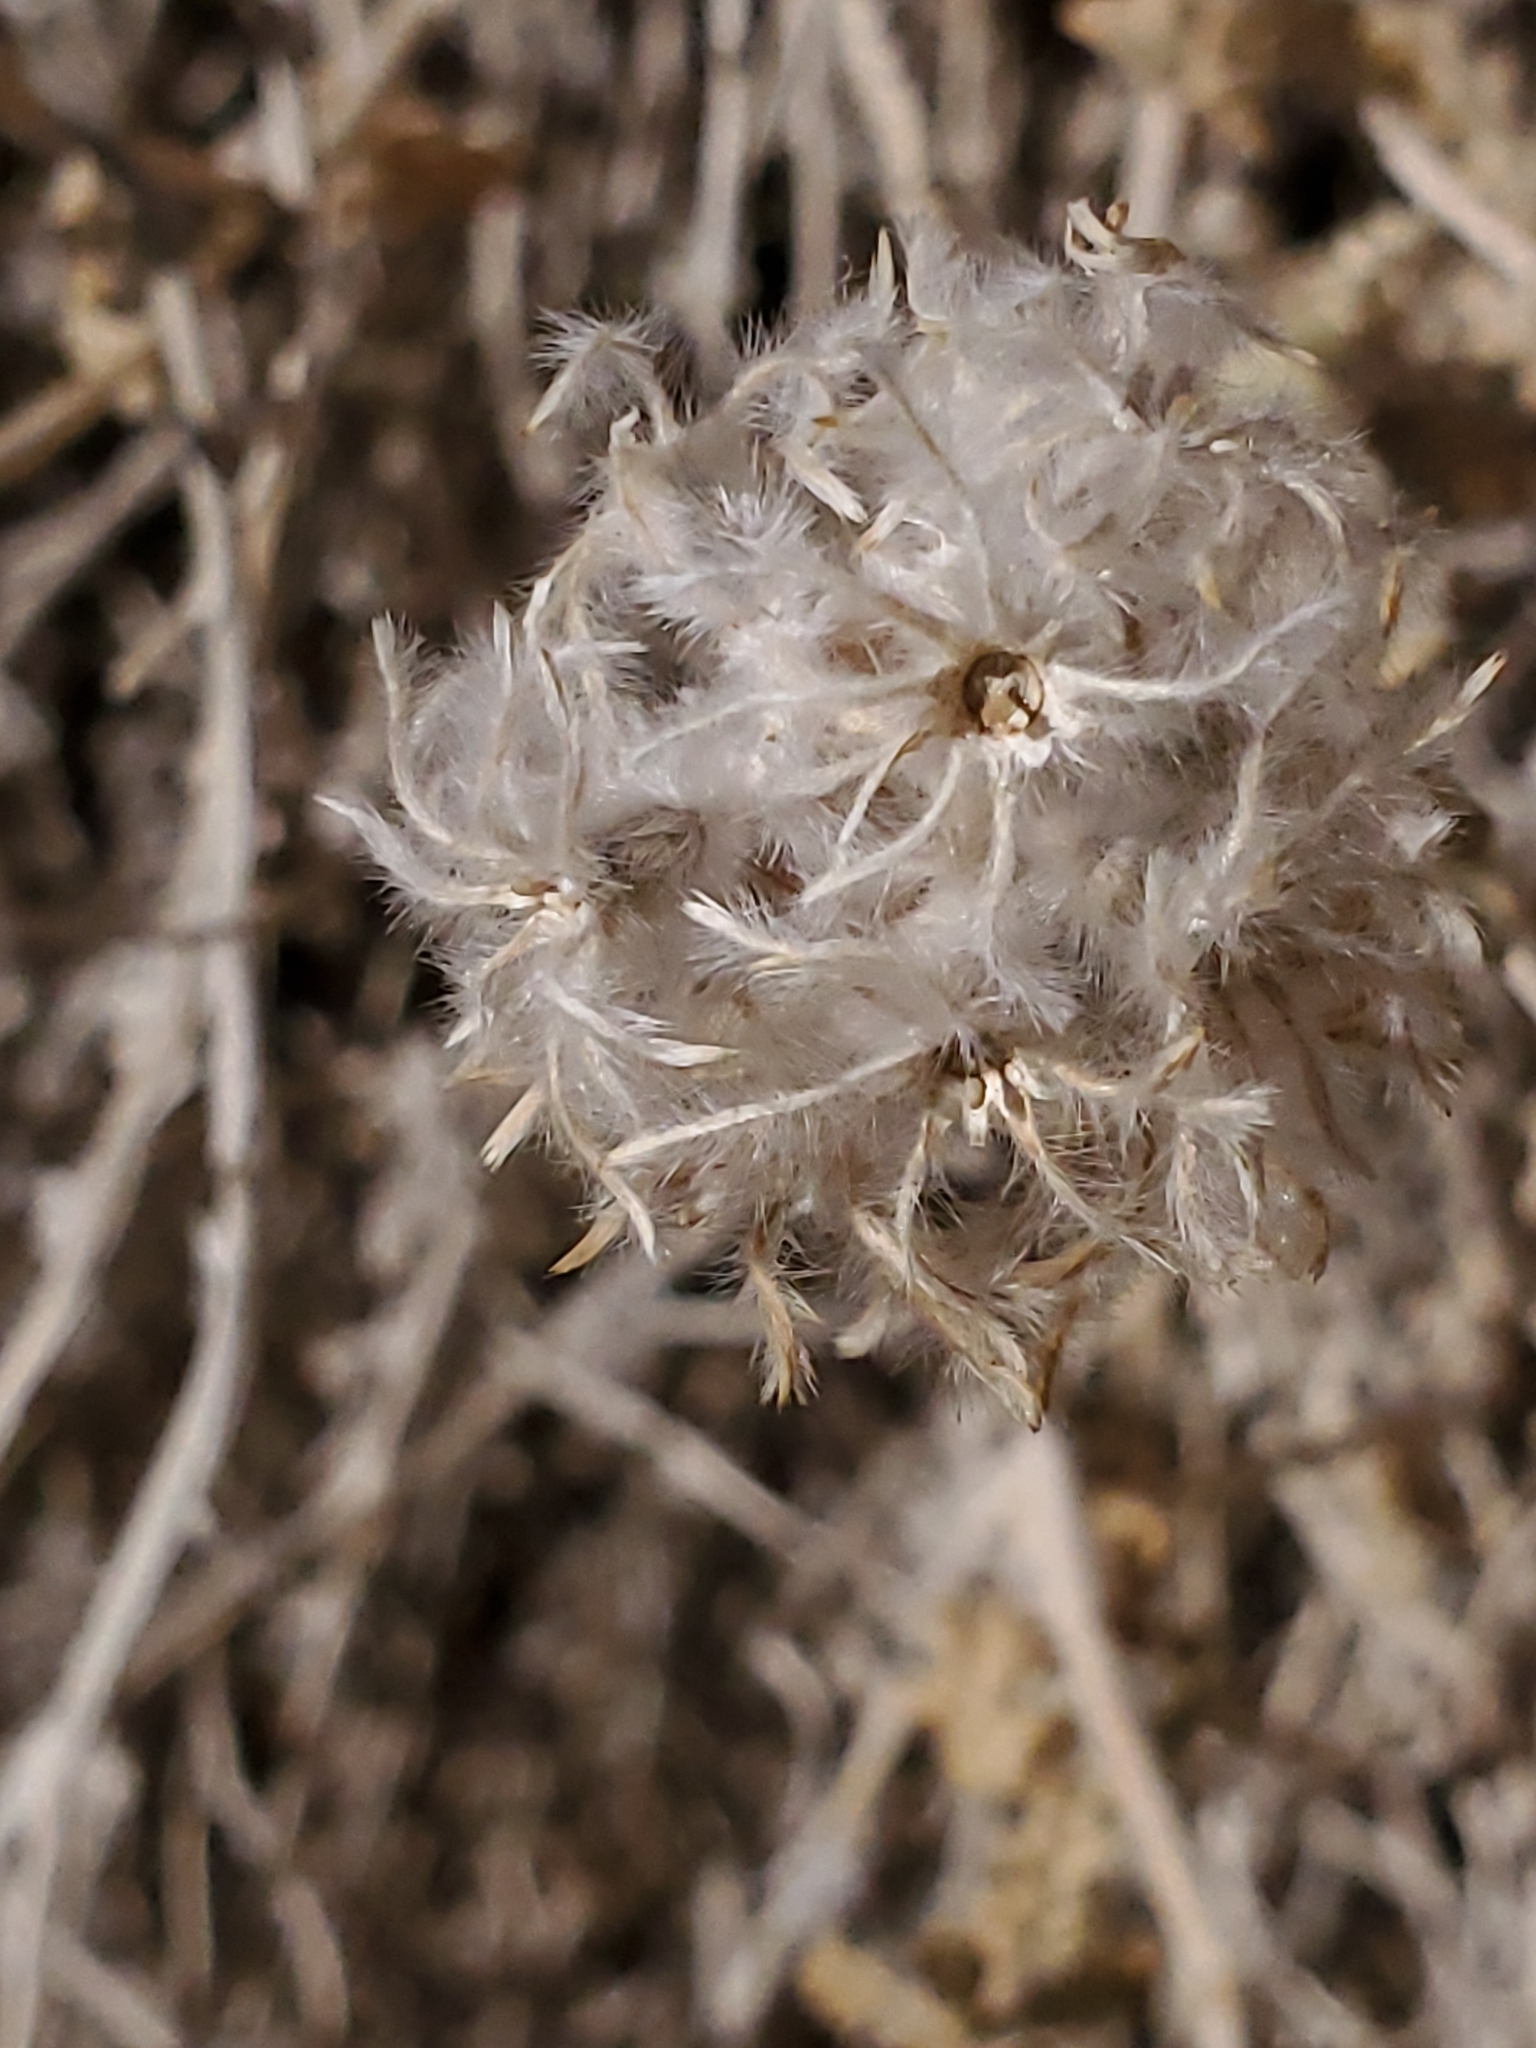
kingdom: Plantae
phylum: Tracheophyta
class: Magnoliopsida
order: Cornales
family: Loasaceae
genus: Cevallia
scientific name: Cevallia sinuata
